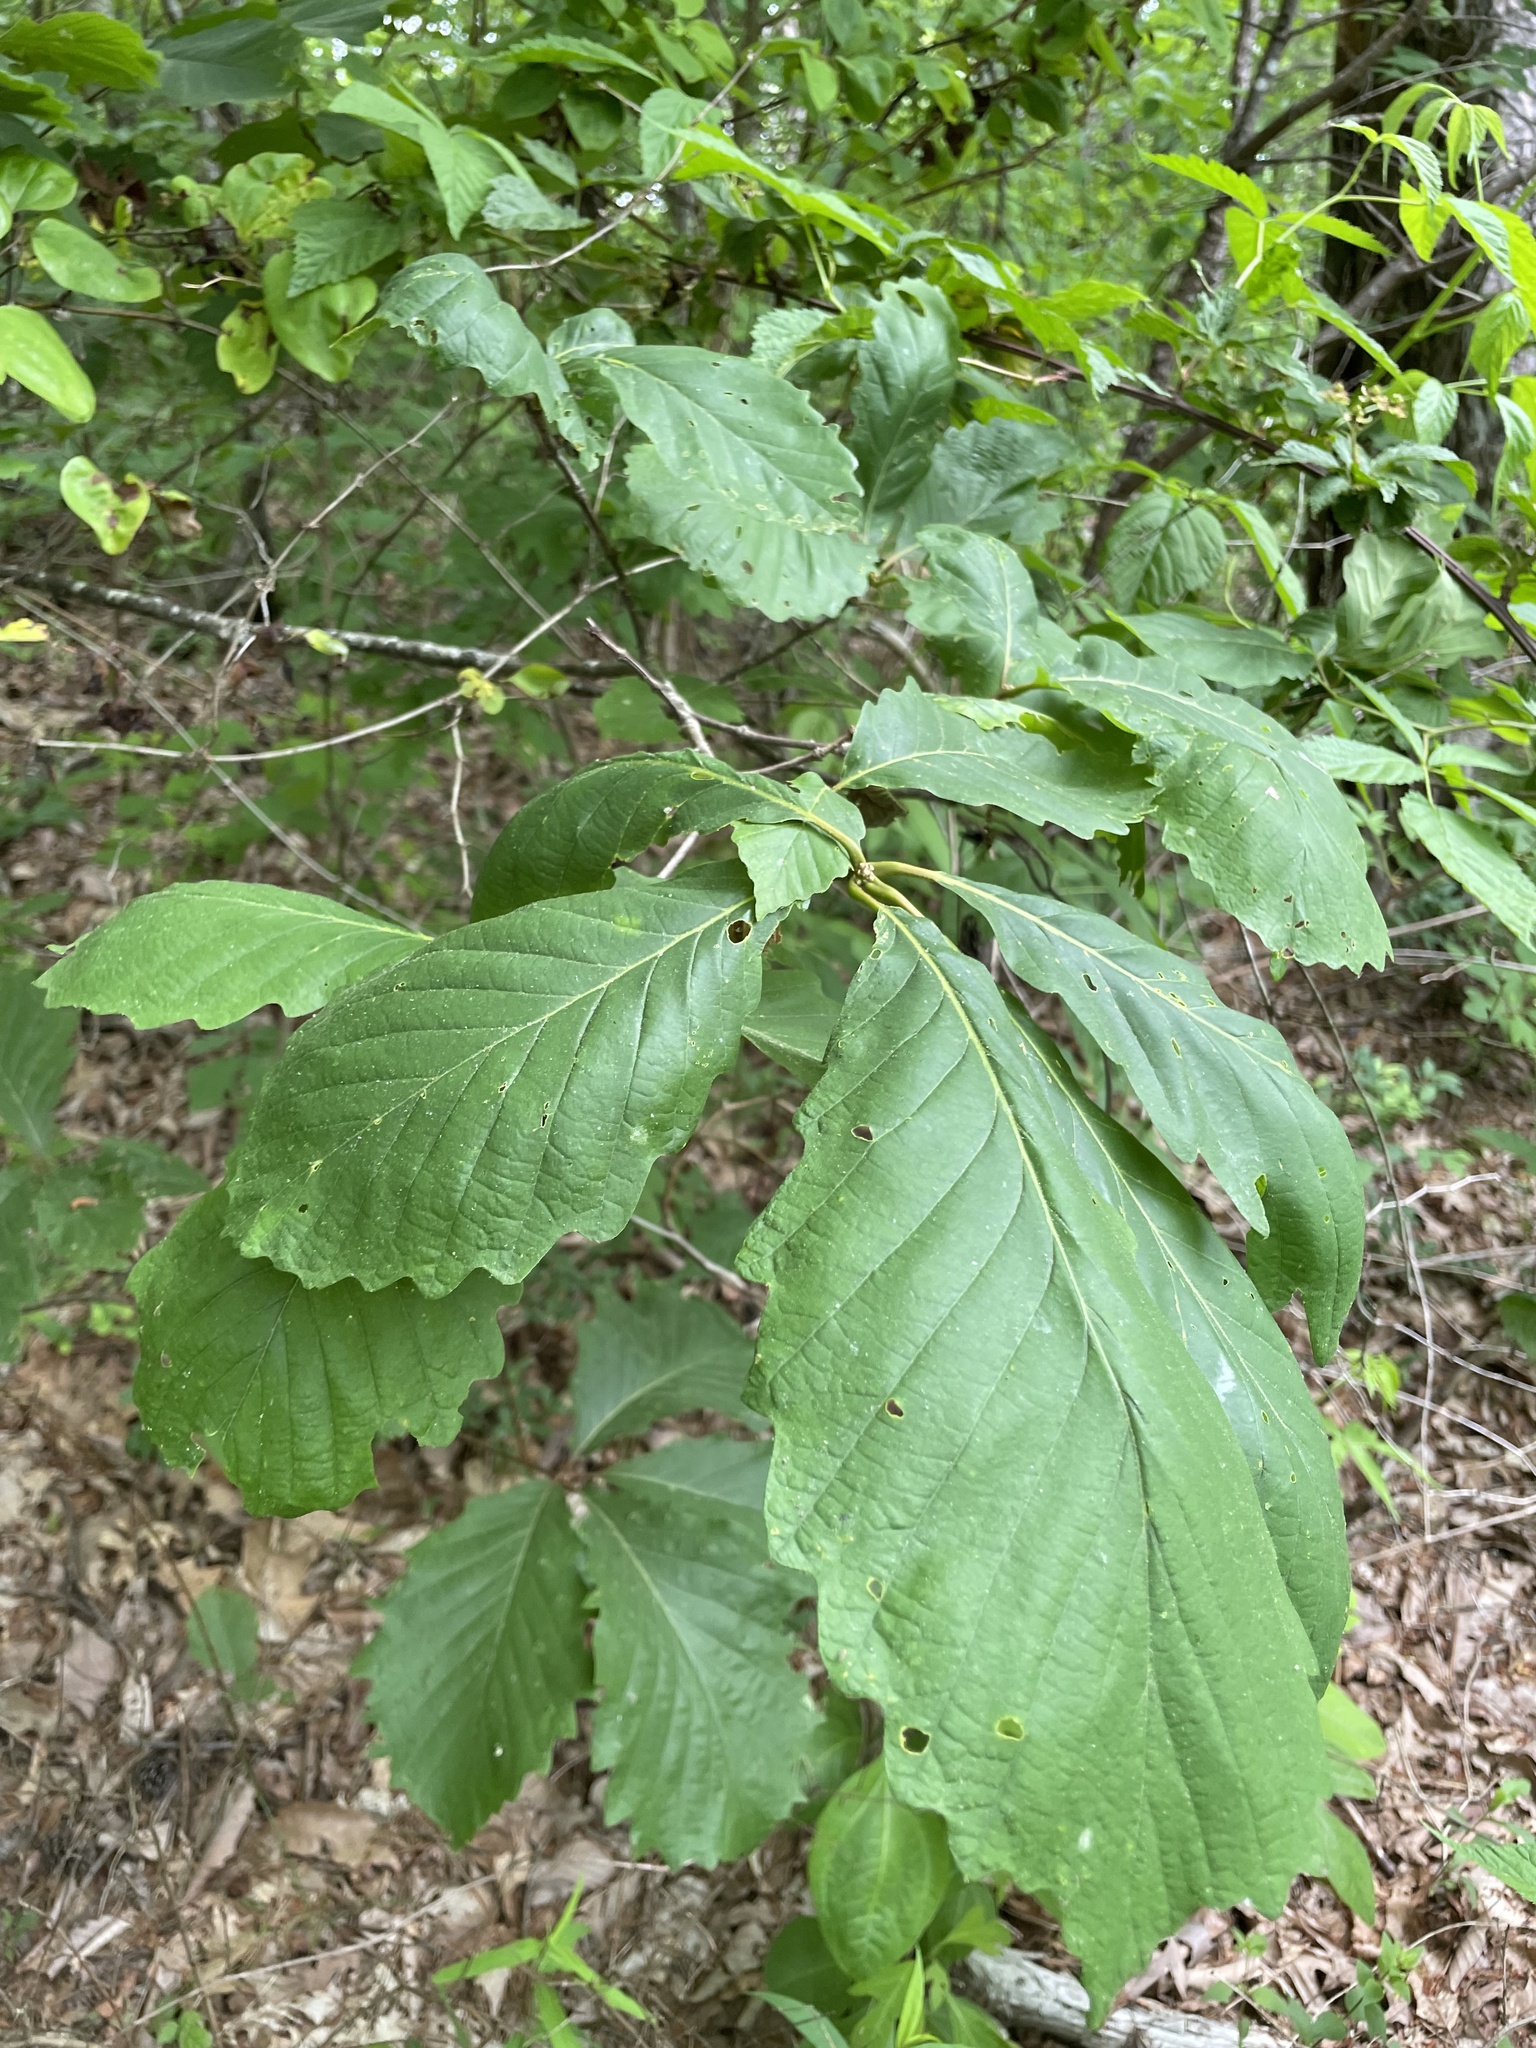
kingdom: Plantae
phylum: Tracheophyta
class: Magnoliopsida
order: Fagales
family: Fagaceae
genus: Quercus
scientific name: Quercus montana
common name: Chestnut oak
